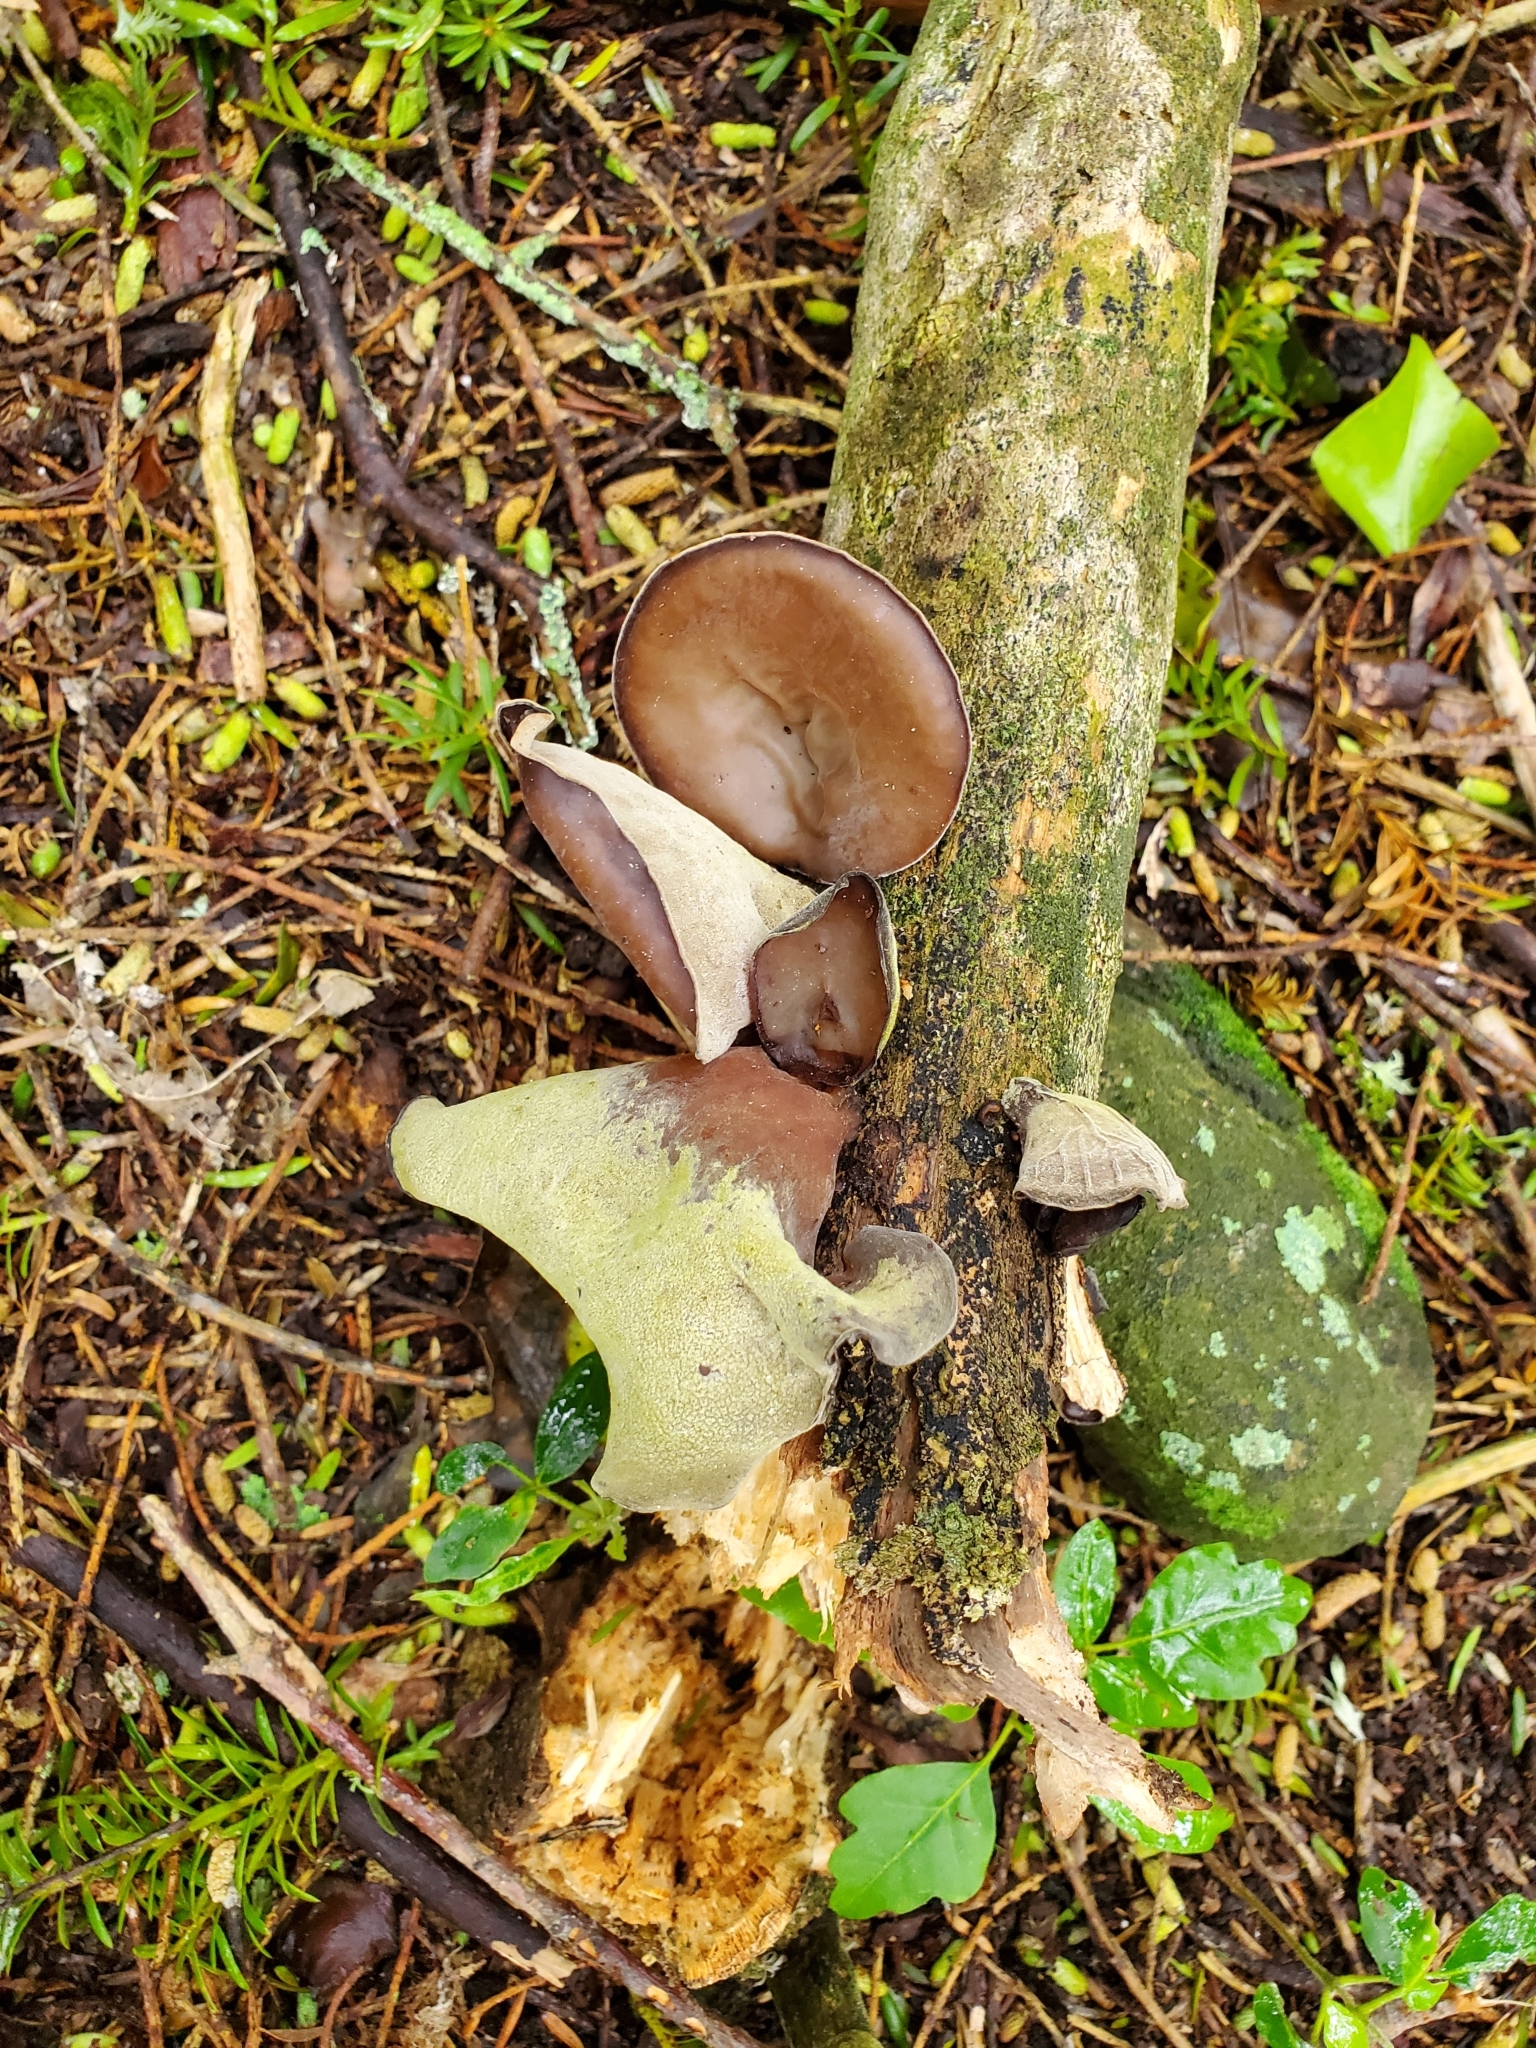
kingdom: Fungi
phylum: Basidiomycota
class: Agaricomycetes
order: Auriculariales
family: Auriculariaceae
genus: Auricularia
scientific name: Auricularia cornea
